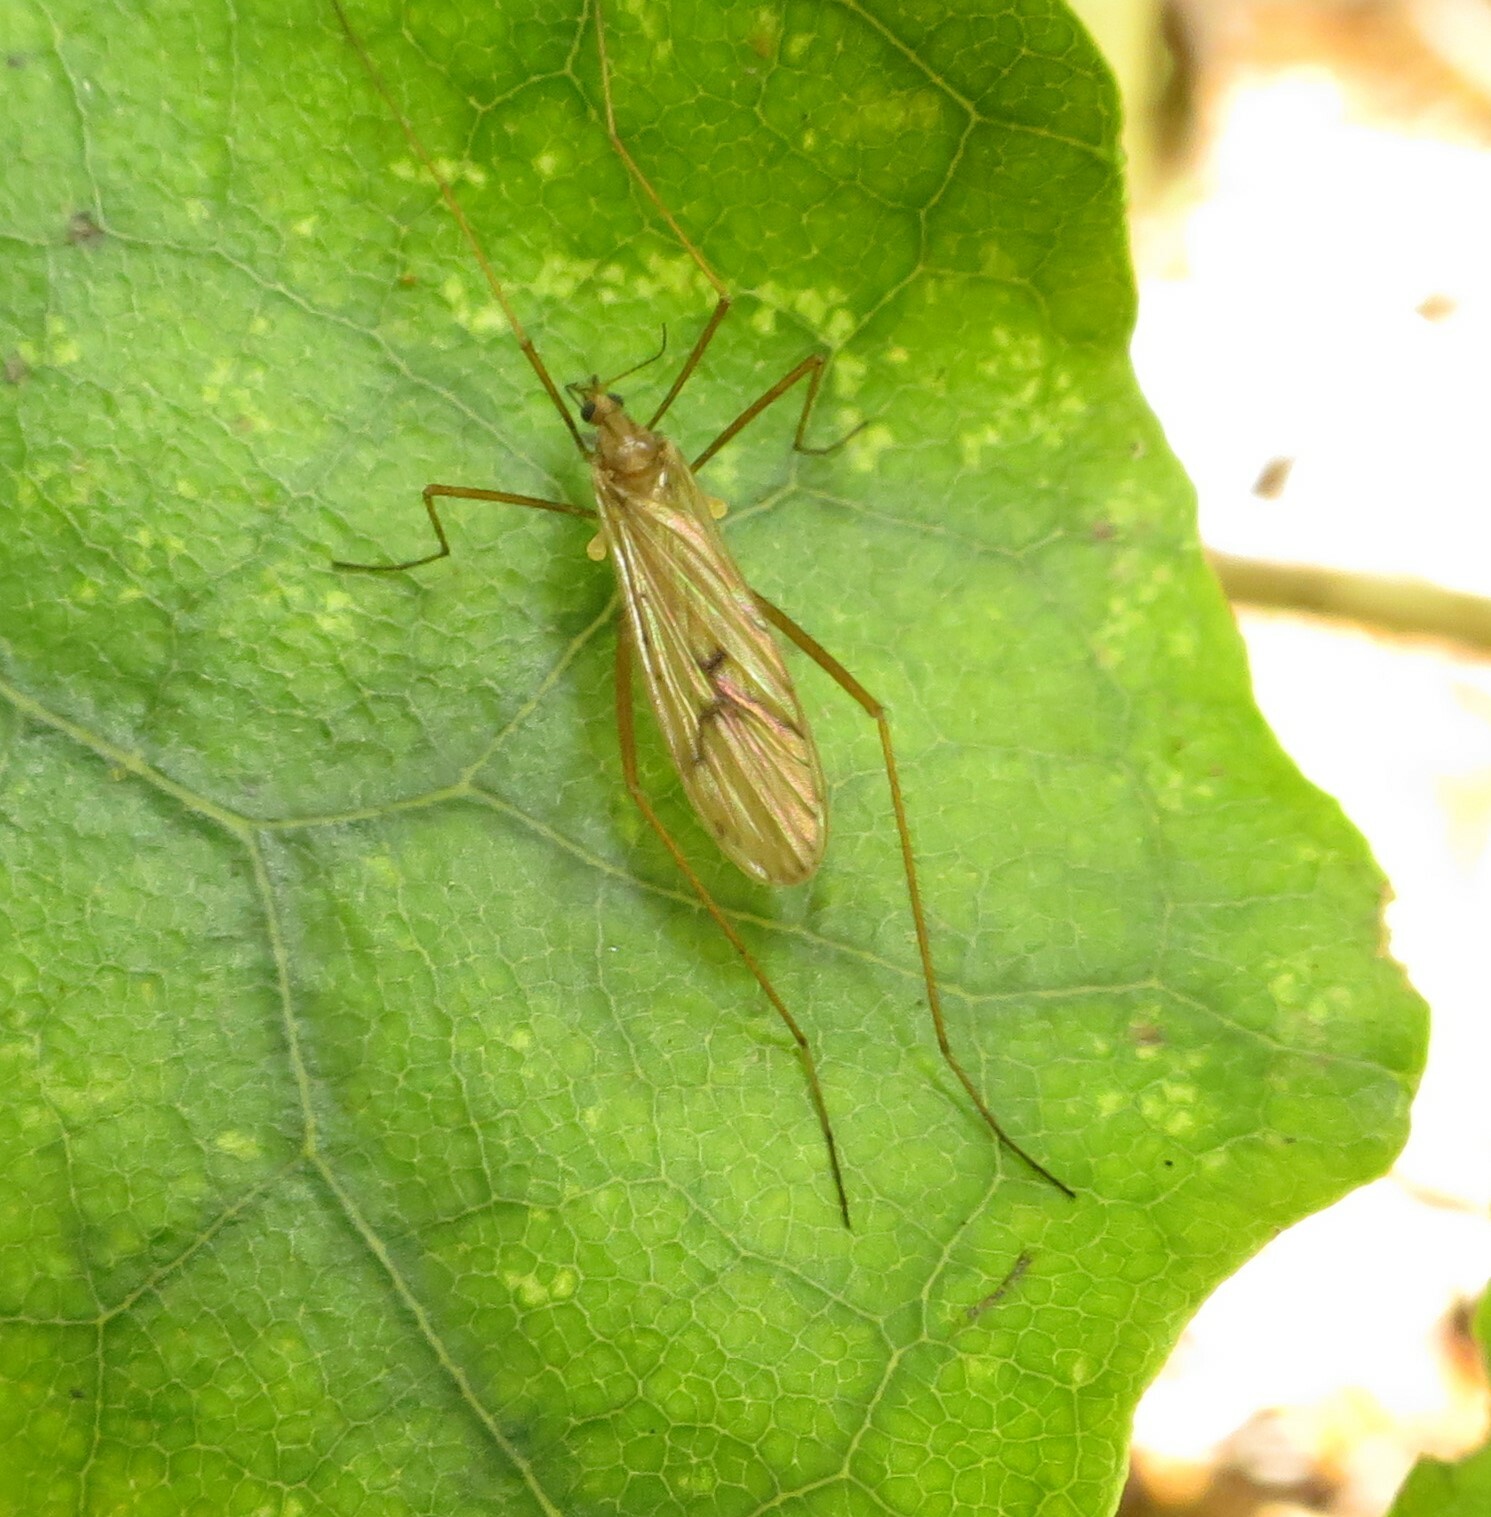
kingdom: Animalia
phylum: Arthropoda
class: Insecta
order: Diptera
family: Limoniidae
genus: Amphineurus
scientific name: Amphineurus insulsus
